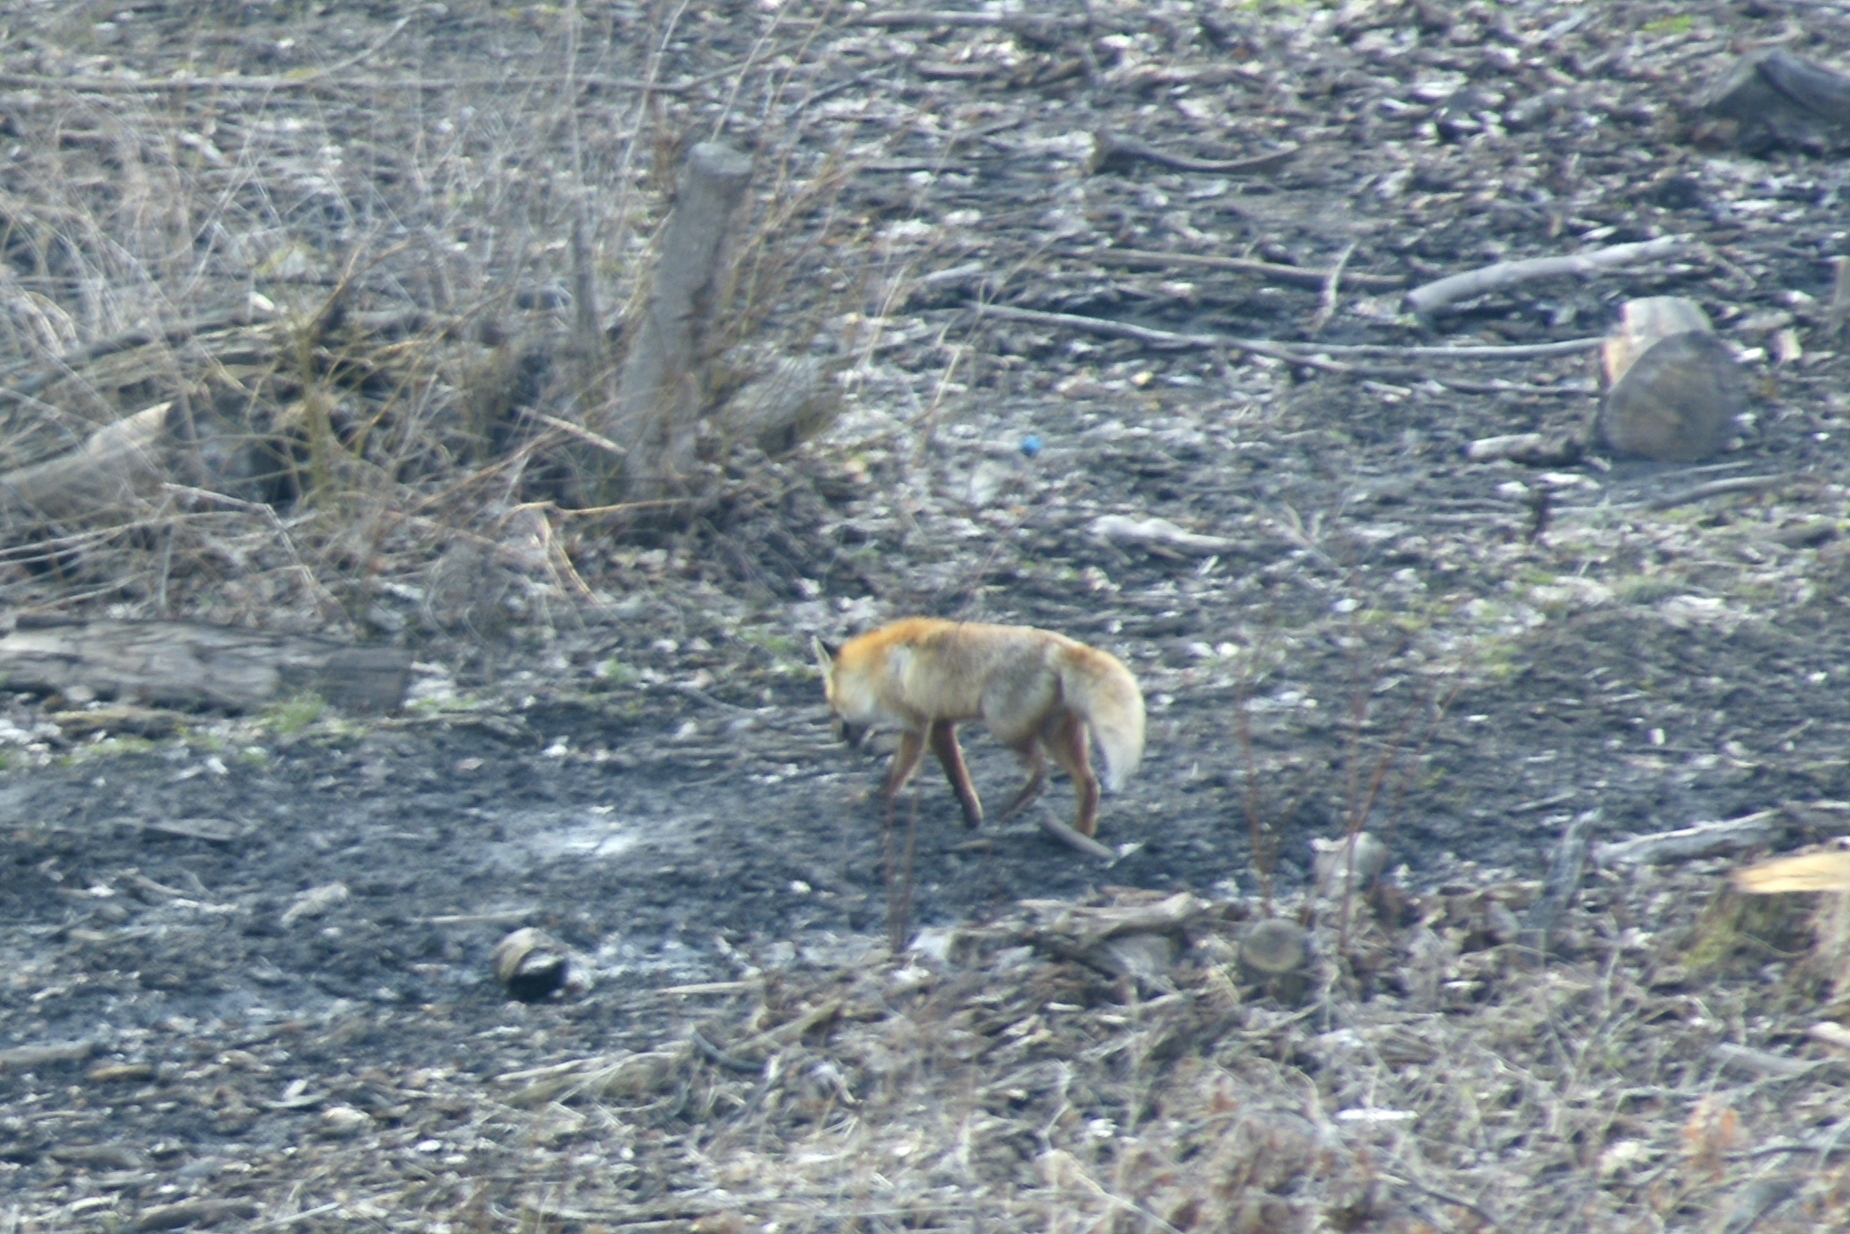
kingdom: Animalia
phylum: Chordata
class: Mammalia
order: Carnivora
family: Canidae
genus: Vulpes
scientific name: Vulpes vulpes
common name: Red fox
